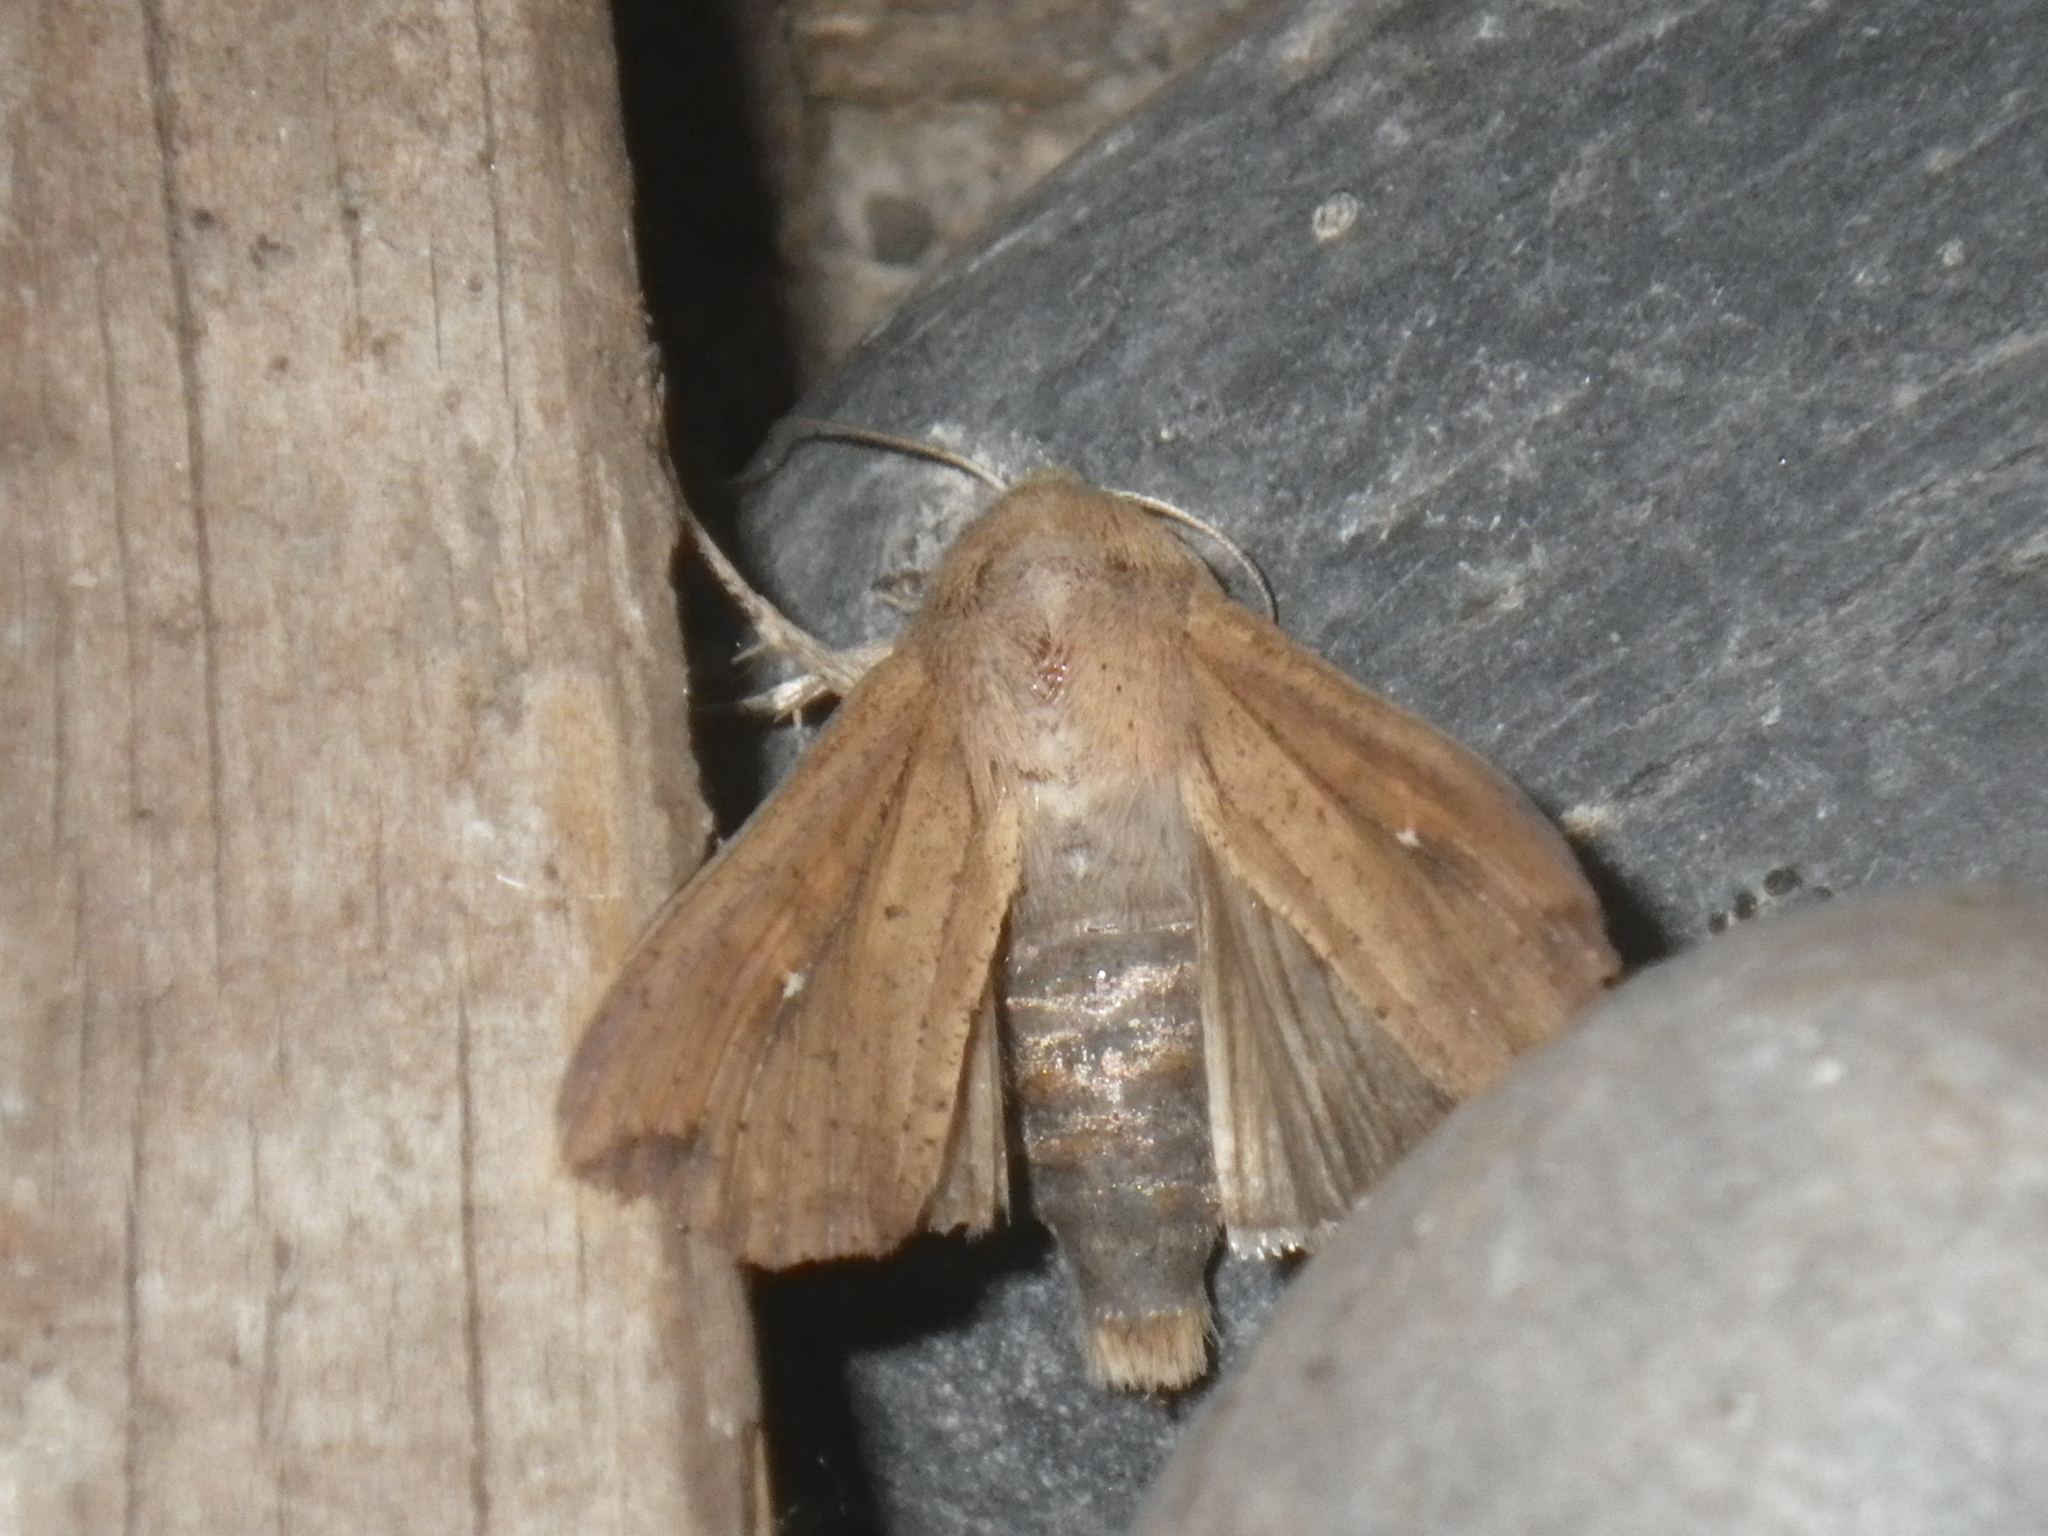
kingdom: Animalia
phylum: Arthropoda
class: Insecta
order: Lepidoptera
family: Noctuidae
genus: Mythimna
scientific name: Mythimna unipuncta
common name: White-speck
